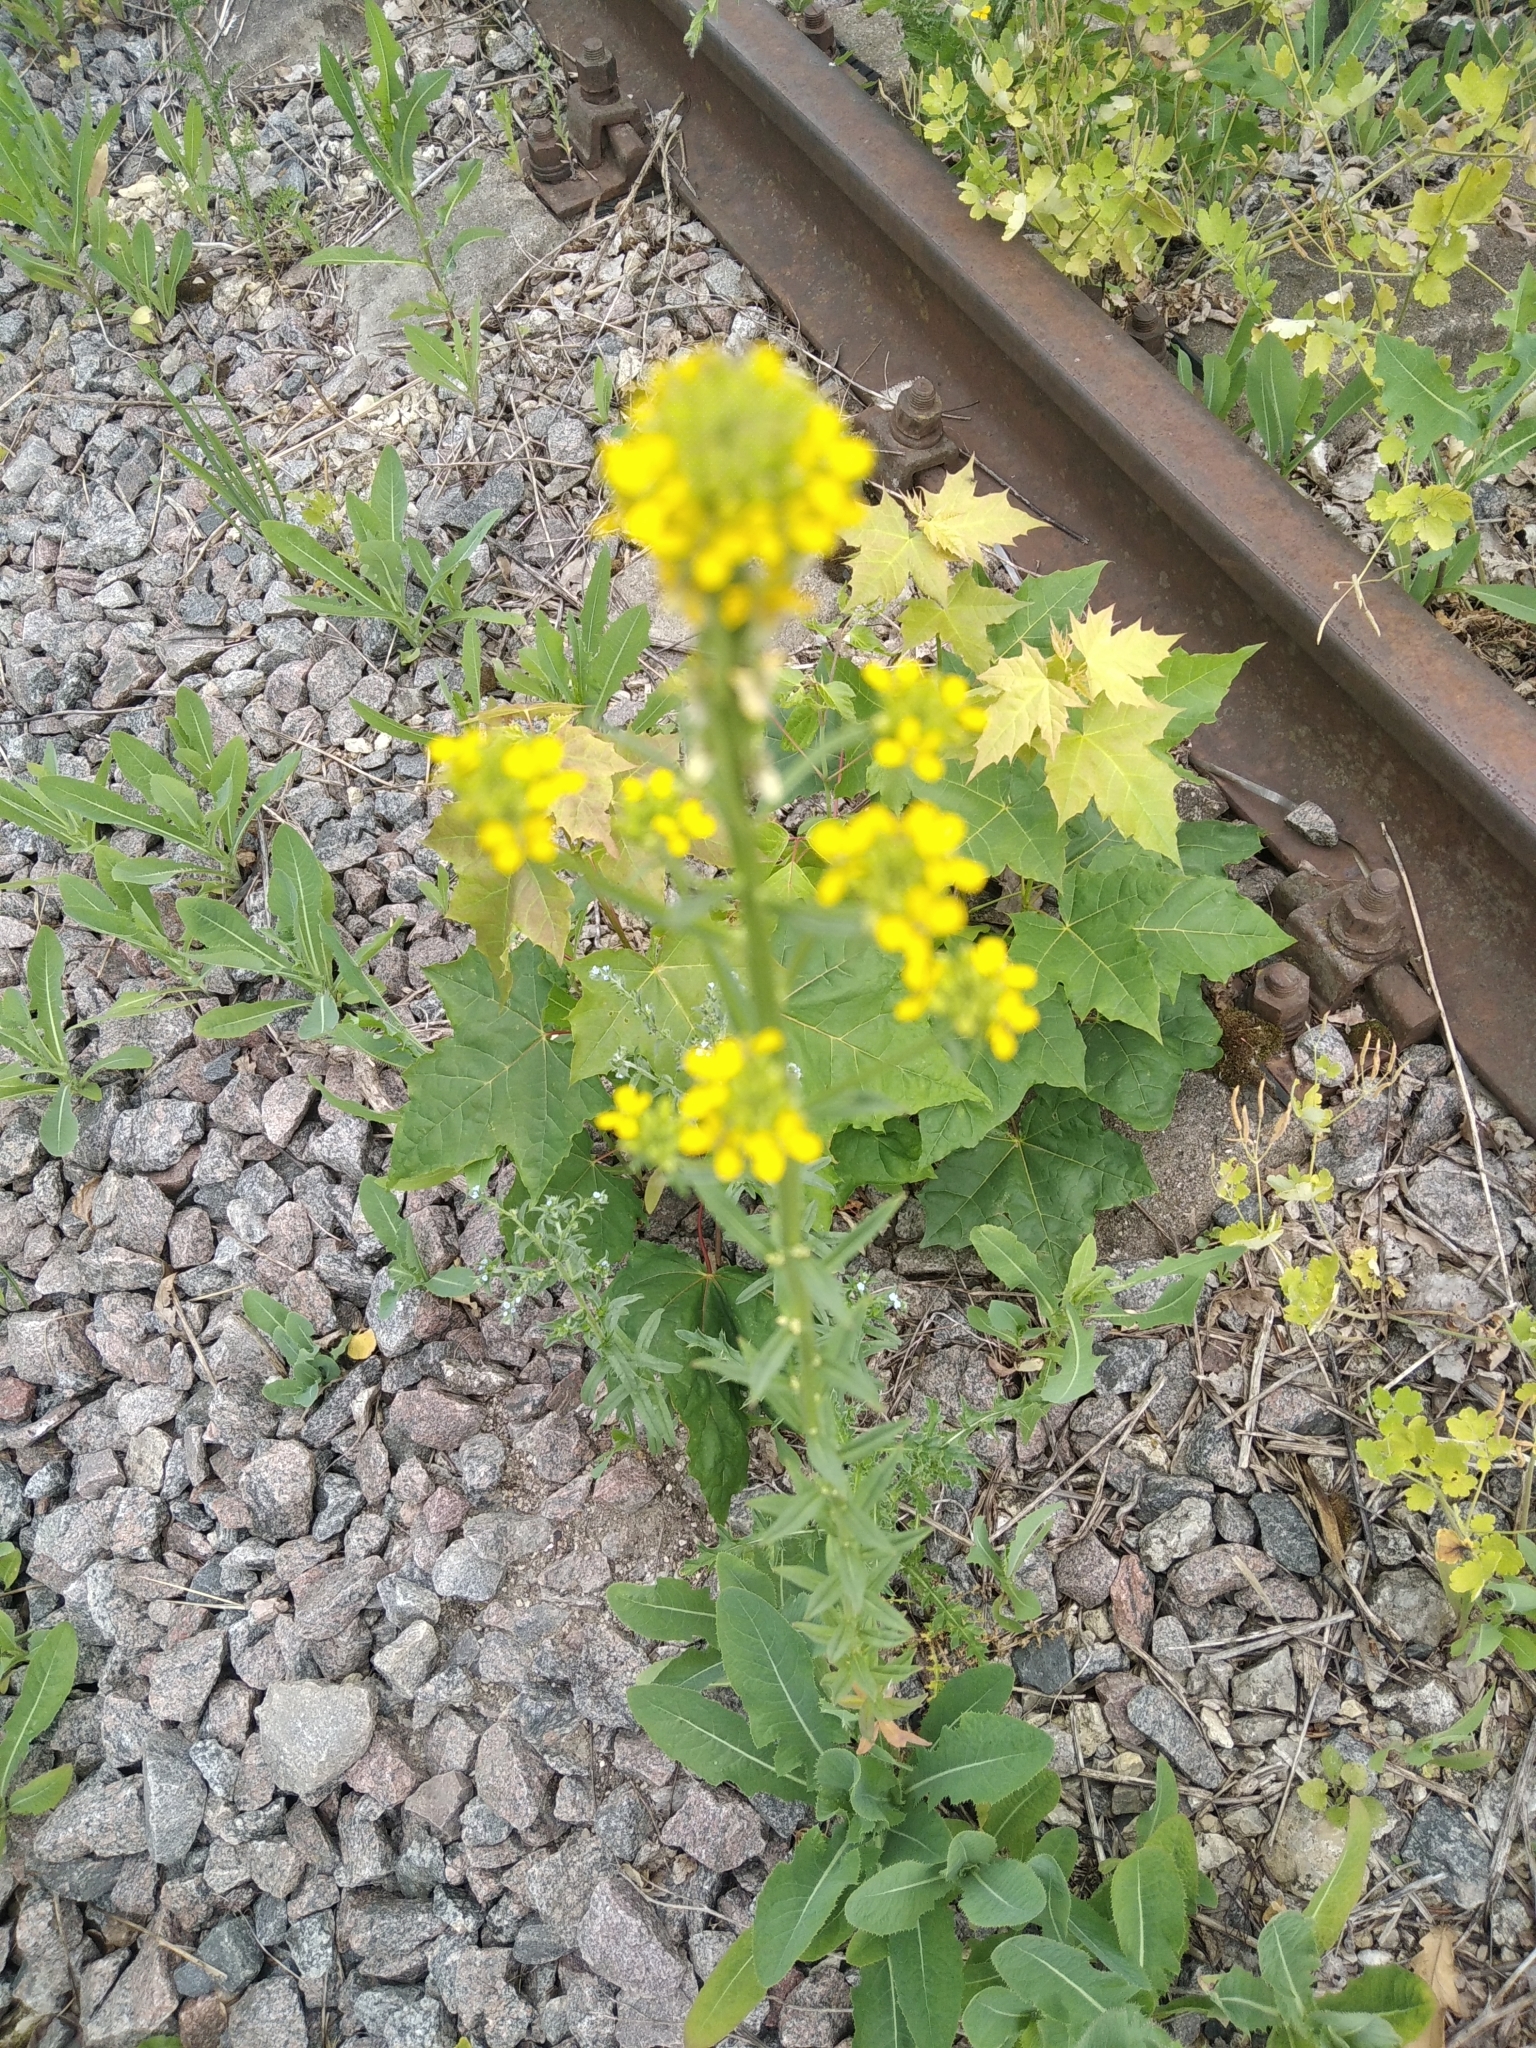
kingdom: Plantae
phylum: Tracheophyta
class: Magnoliopsida
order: Brassicales
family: Brassicaceae
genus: Sisymbrium
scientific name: Sisymbrium loeselii
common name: False london-rocket
